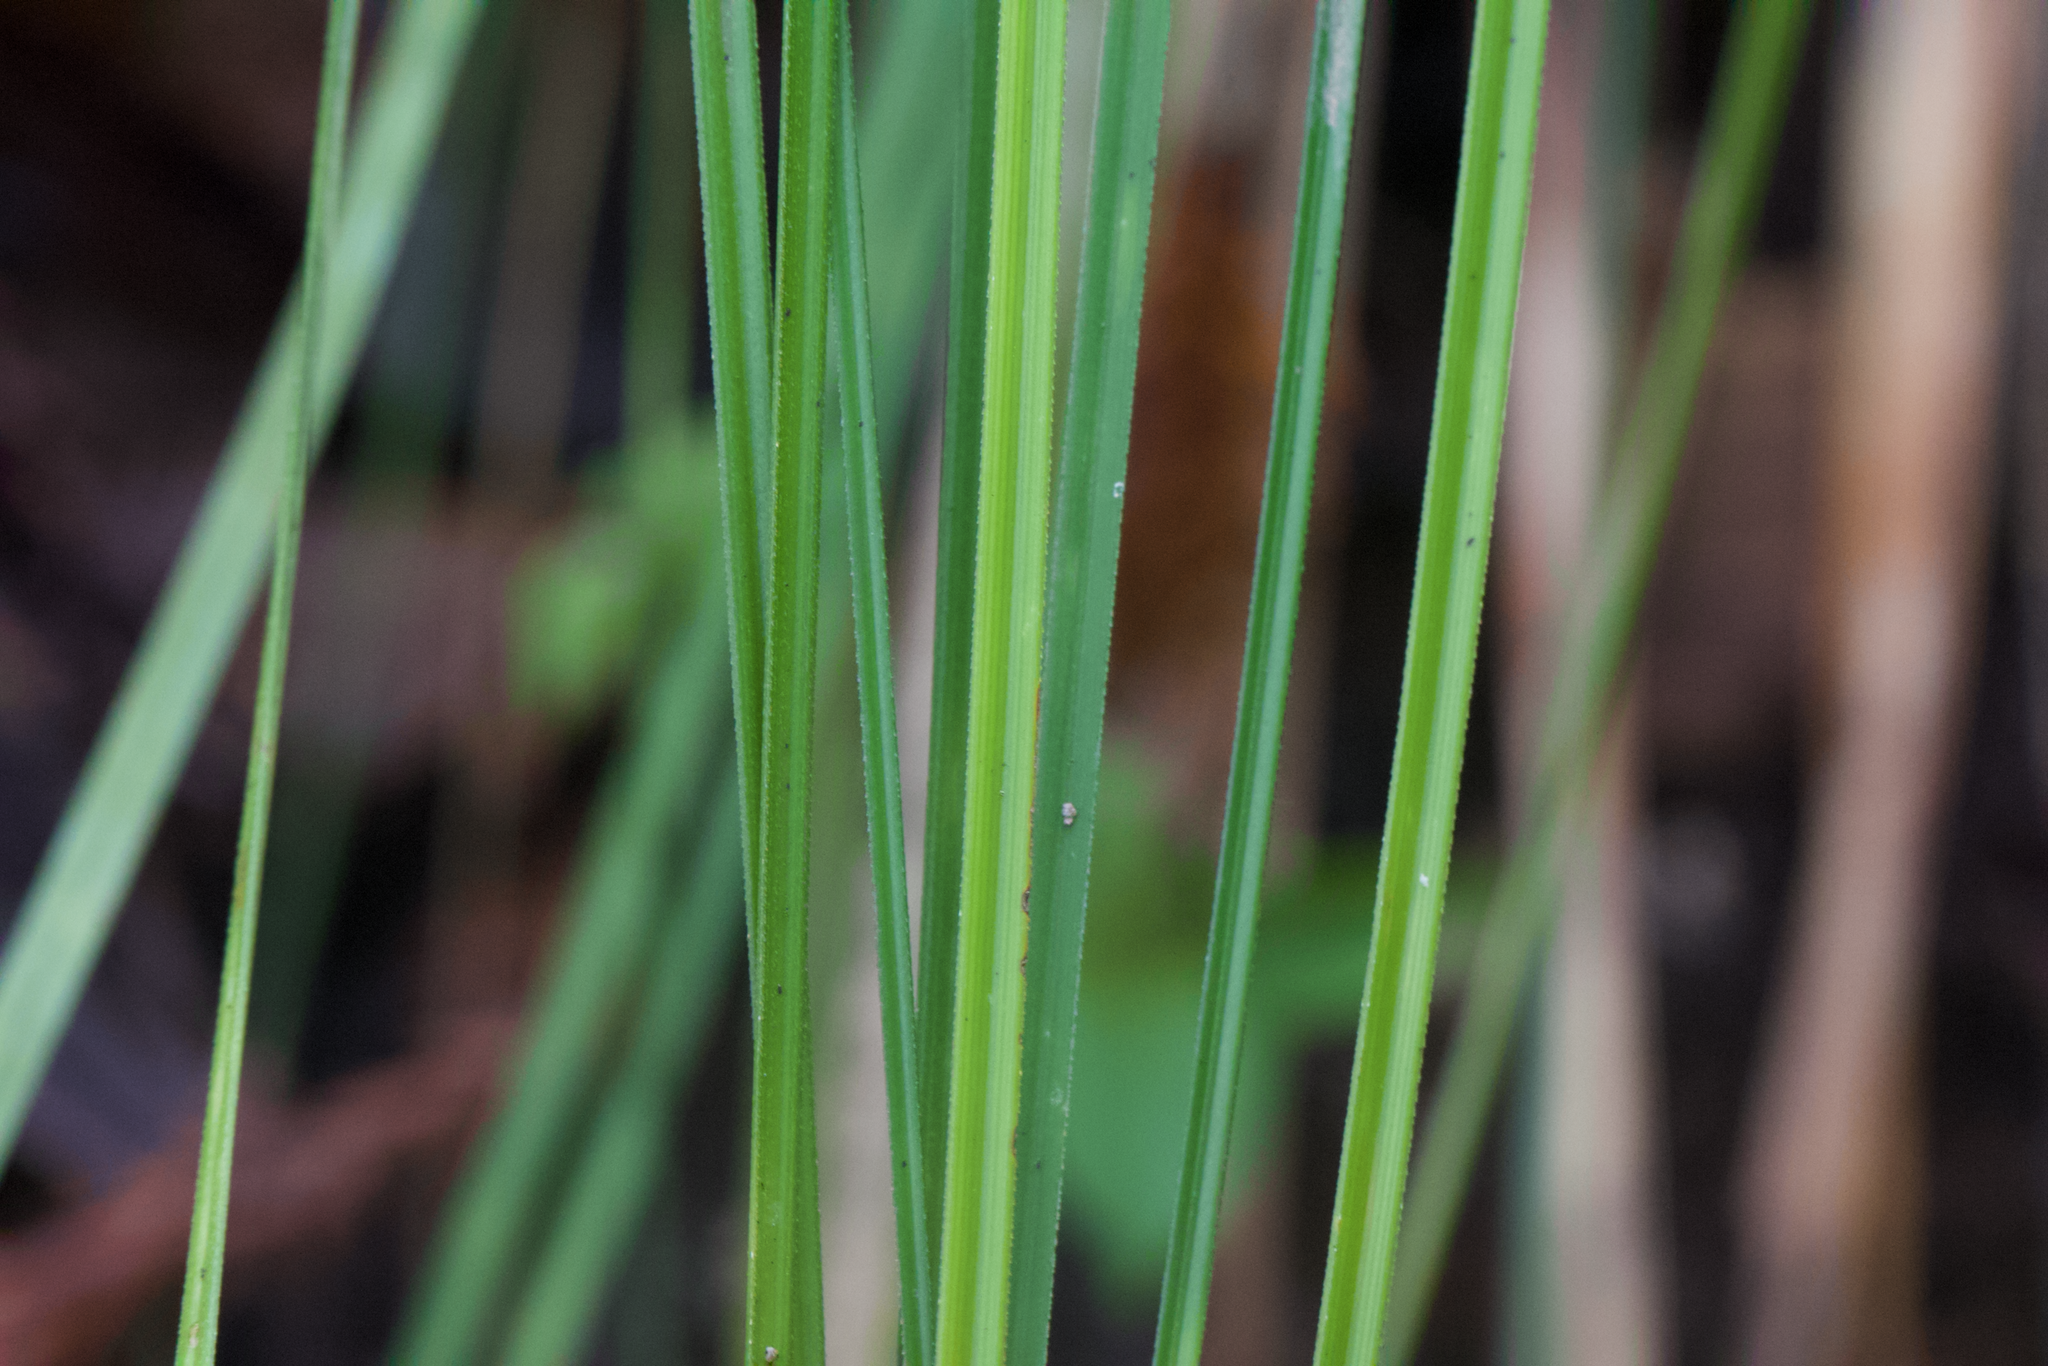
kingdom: Plantae
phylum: Tracheophyta
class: Liliopsida
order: Liliales
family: Melanthiaceae
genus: Xerophyllum
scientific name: Xerophyllum tenax
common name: Bear-grass
